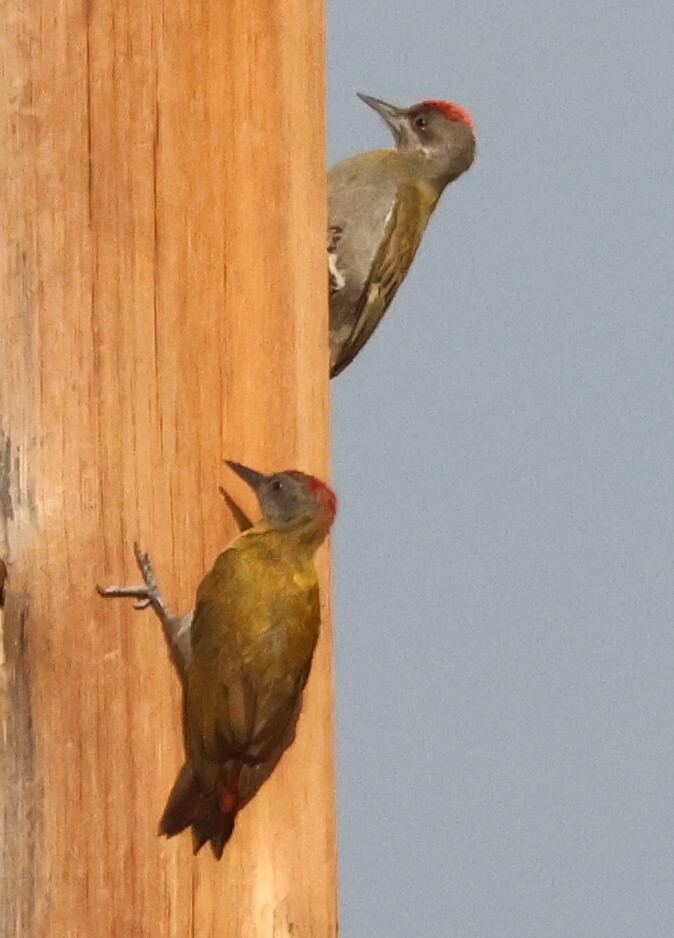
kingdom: Animalia
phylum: Chordata
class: Aves
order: Piciformes
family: Picidae
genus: Dendropicos
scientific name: Dendropicos griseocephalus
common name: Olive woodpecker
